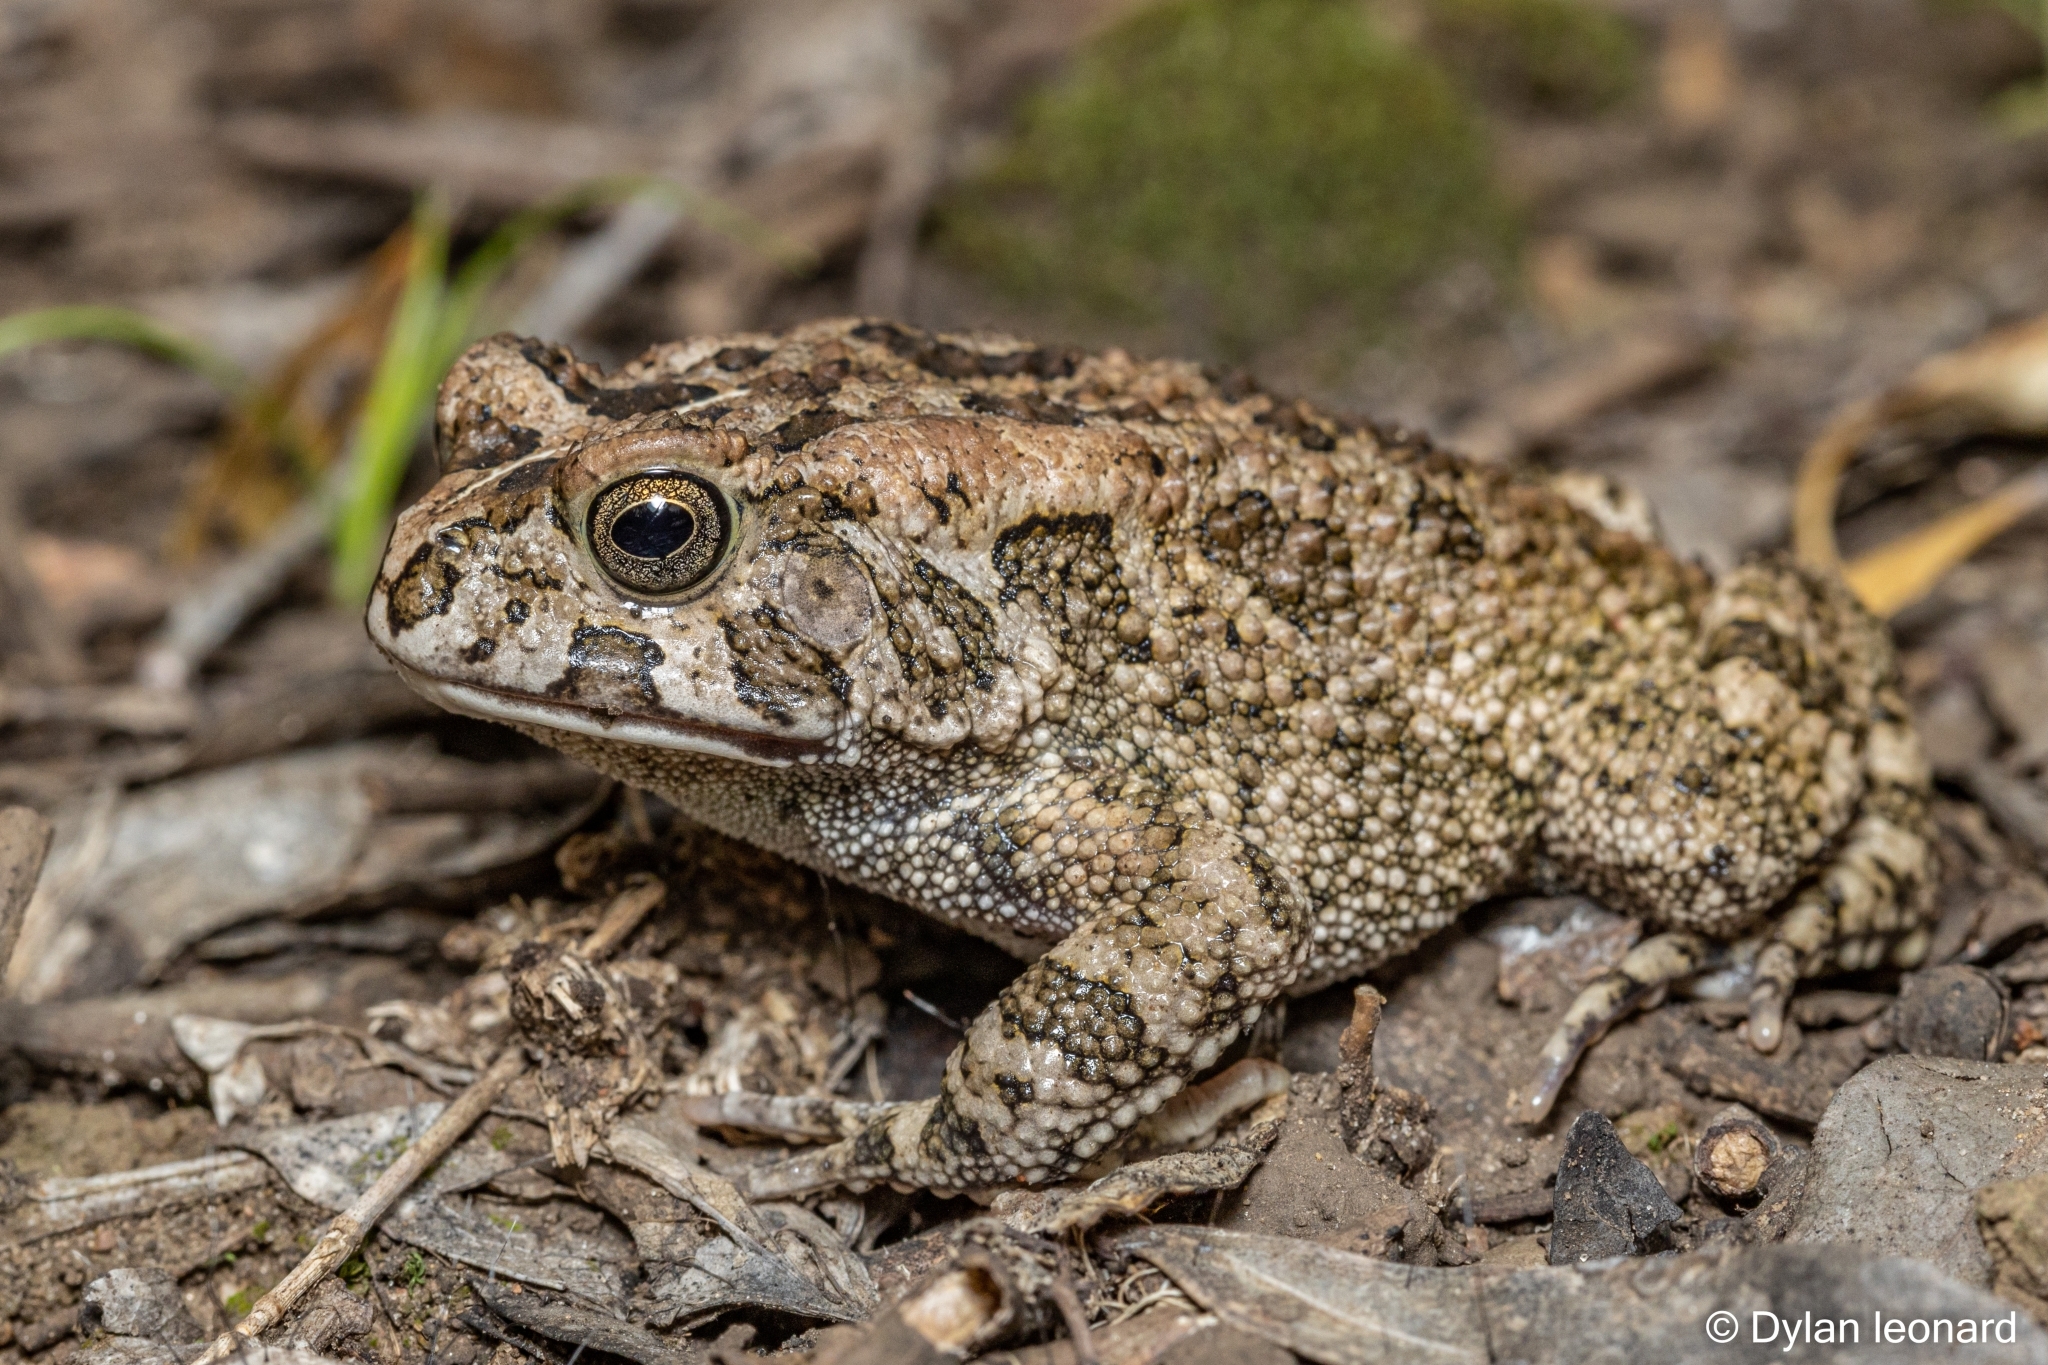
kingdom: Animalia
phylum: Chordata
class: Amphibia
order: Anura
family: Bufonidae
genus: Sclerophrys
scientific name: Sclerophrys gutturalis
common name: African common toad
